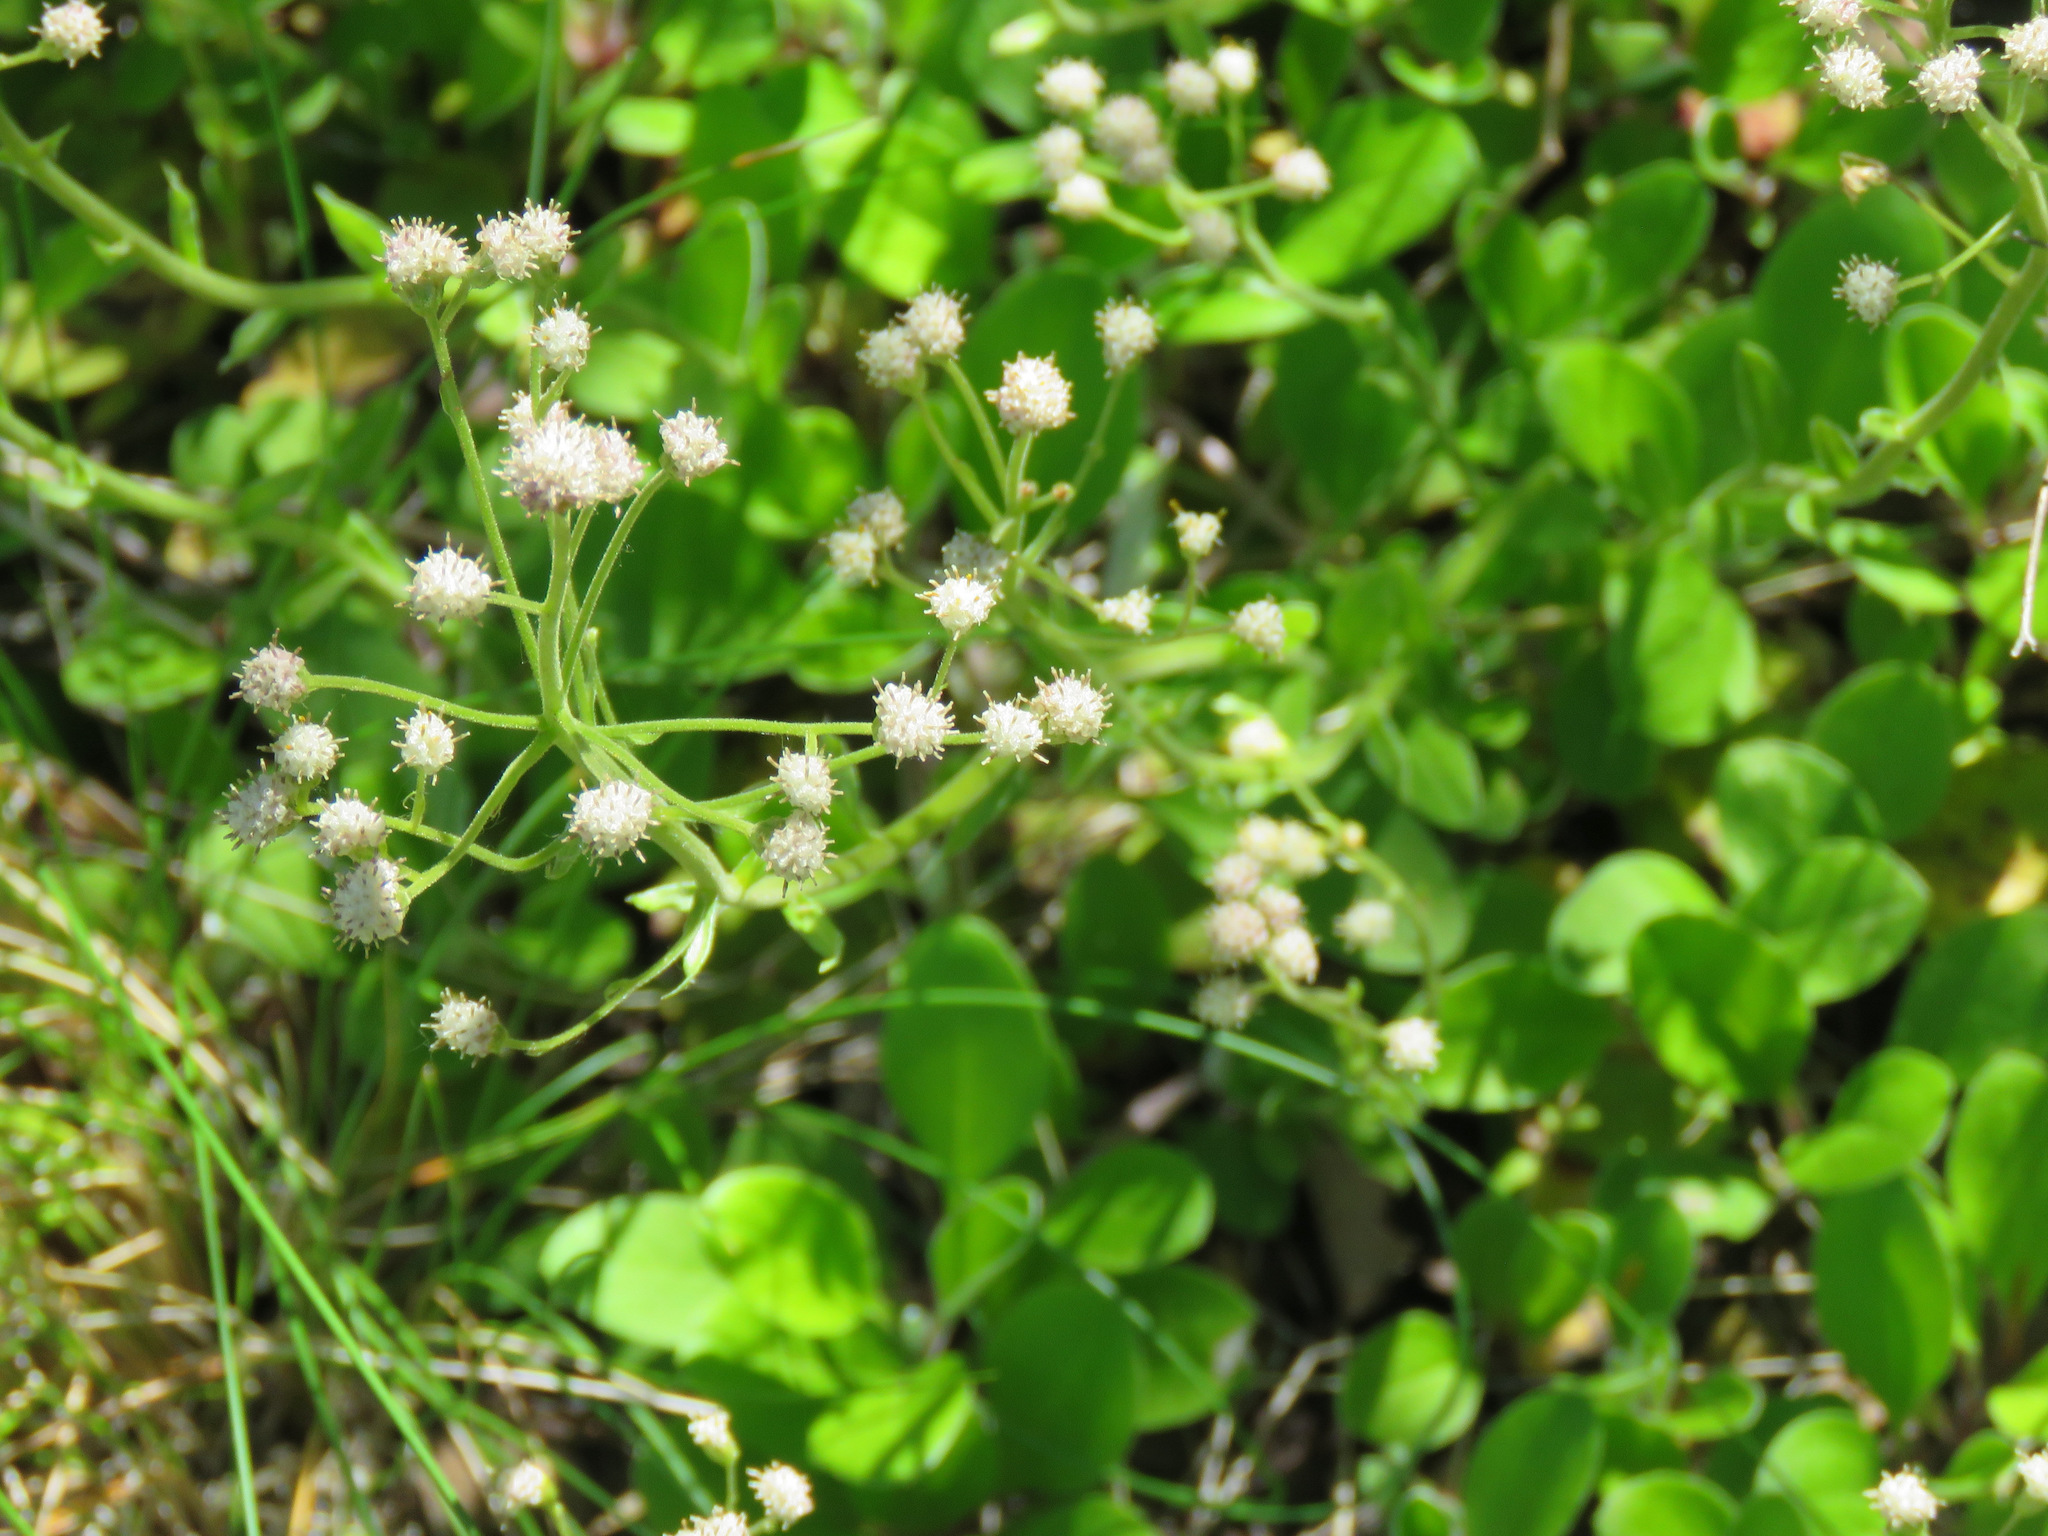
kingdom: Plantae
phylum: Tracheophyta
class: Magnoliopsida
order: Asterales
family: Asteraceae
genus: Antennaria
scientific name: Antennaria racemosa
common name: Racemose pussytoes
